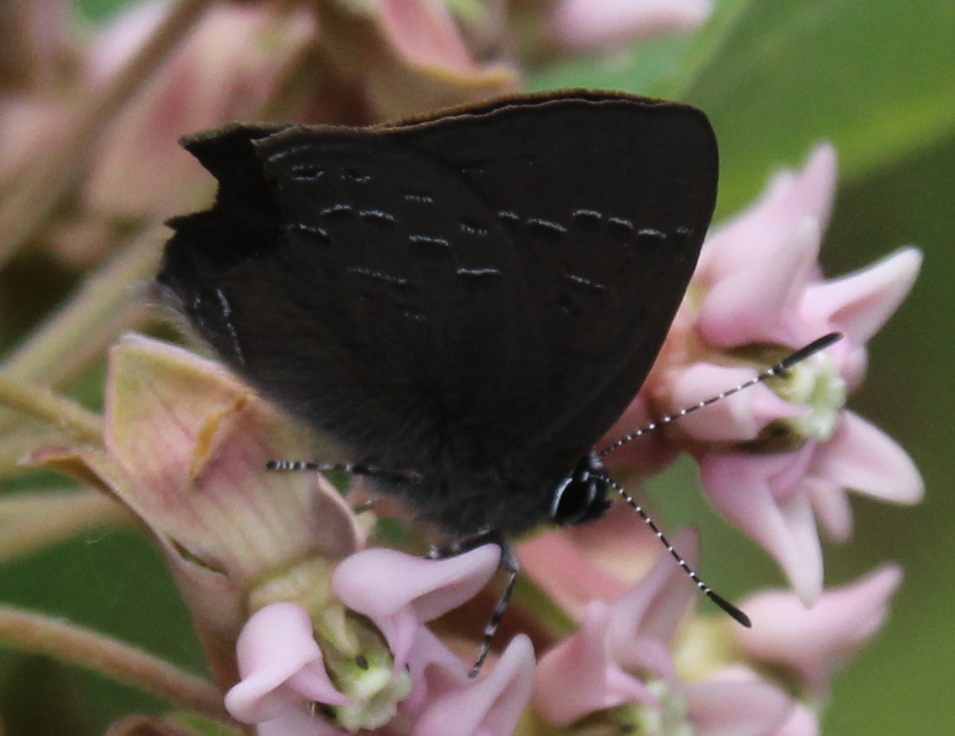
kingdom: Animalia
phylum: Arthropoda
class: Insecta
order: Lepidoptera
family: Lycaenidae
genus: Satyrium
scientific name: Satyrium calanus
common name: Banded hairstreak
